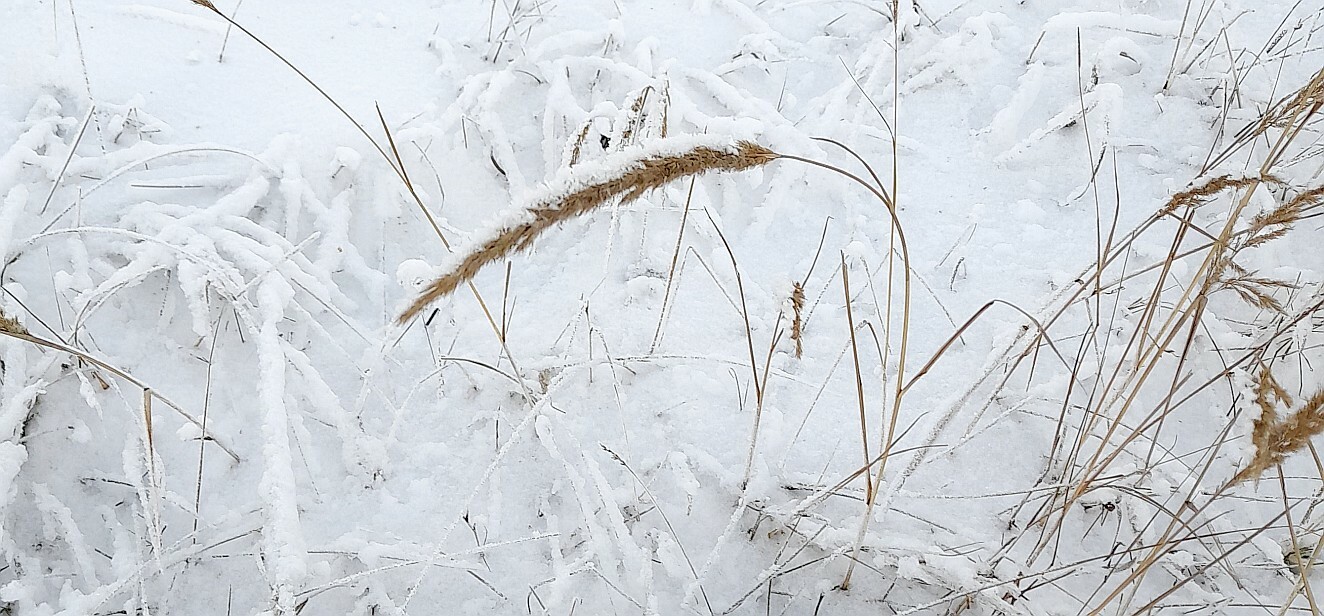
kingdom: Plantae
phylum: Tracheophyta
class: Liliopsida
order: Poales
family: Poaceae
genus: Calamagrostis
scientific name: Calamagrostis epigejos
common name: Wood small-reed
